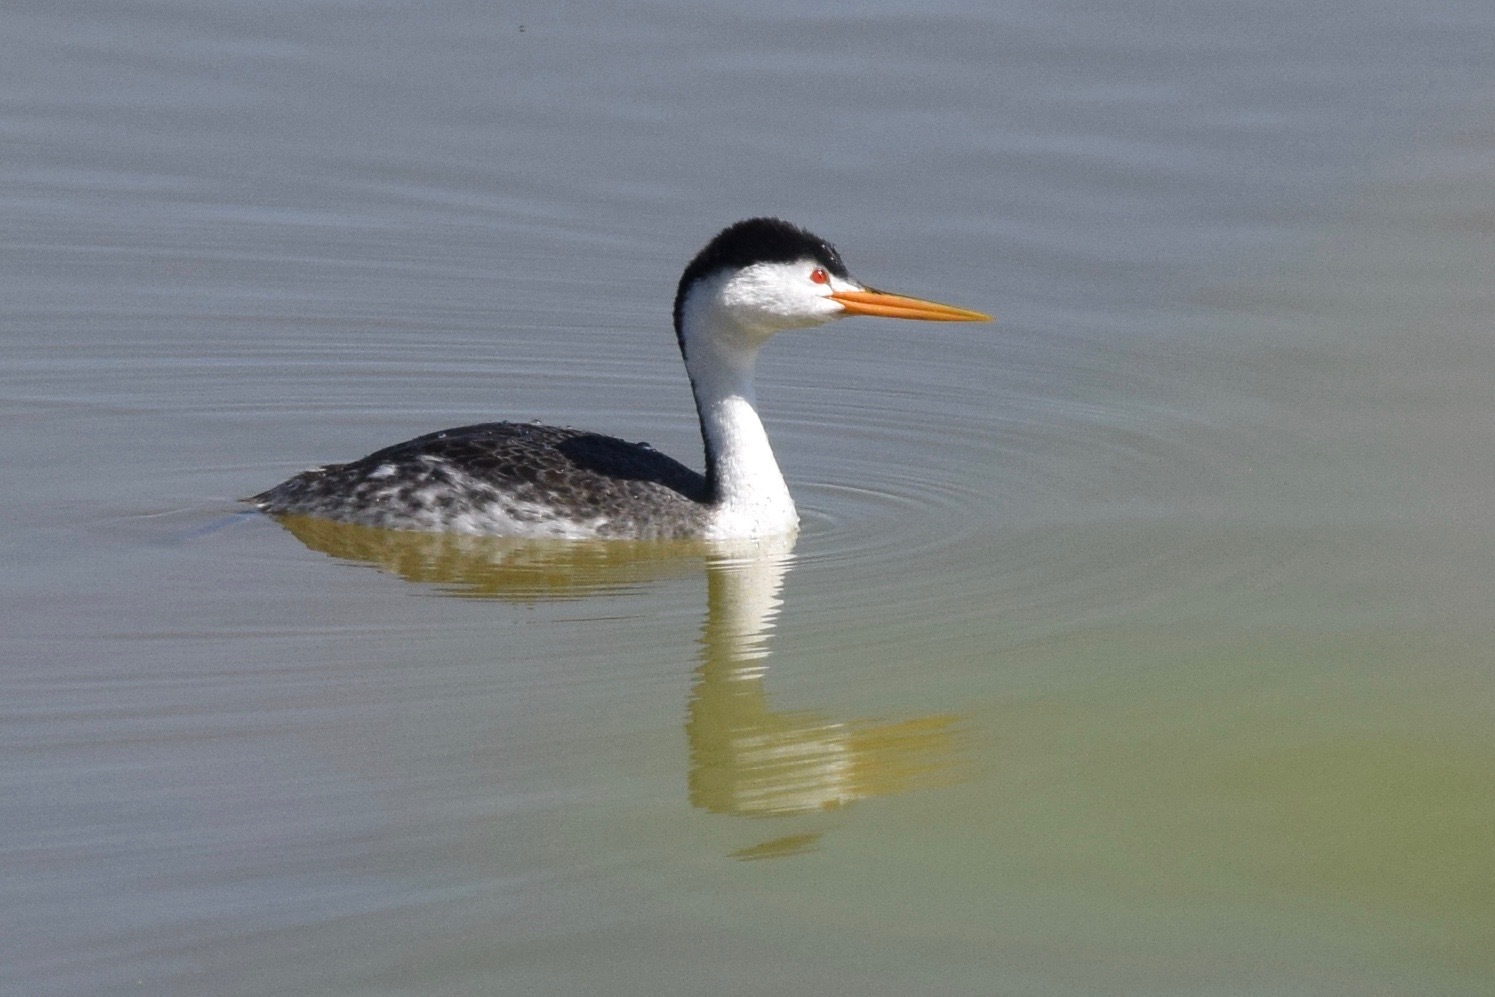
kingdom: Animalia
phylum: Chordata
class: Aves
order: Podicipediformes
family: Podicipedidae
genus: Aechmophorus
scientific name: Aechmophorus clarkii
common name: Clark's grebe
